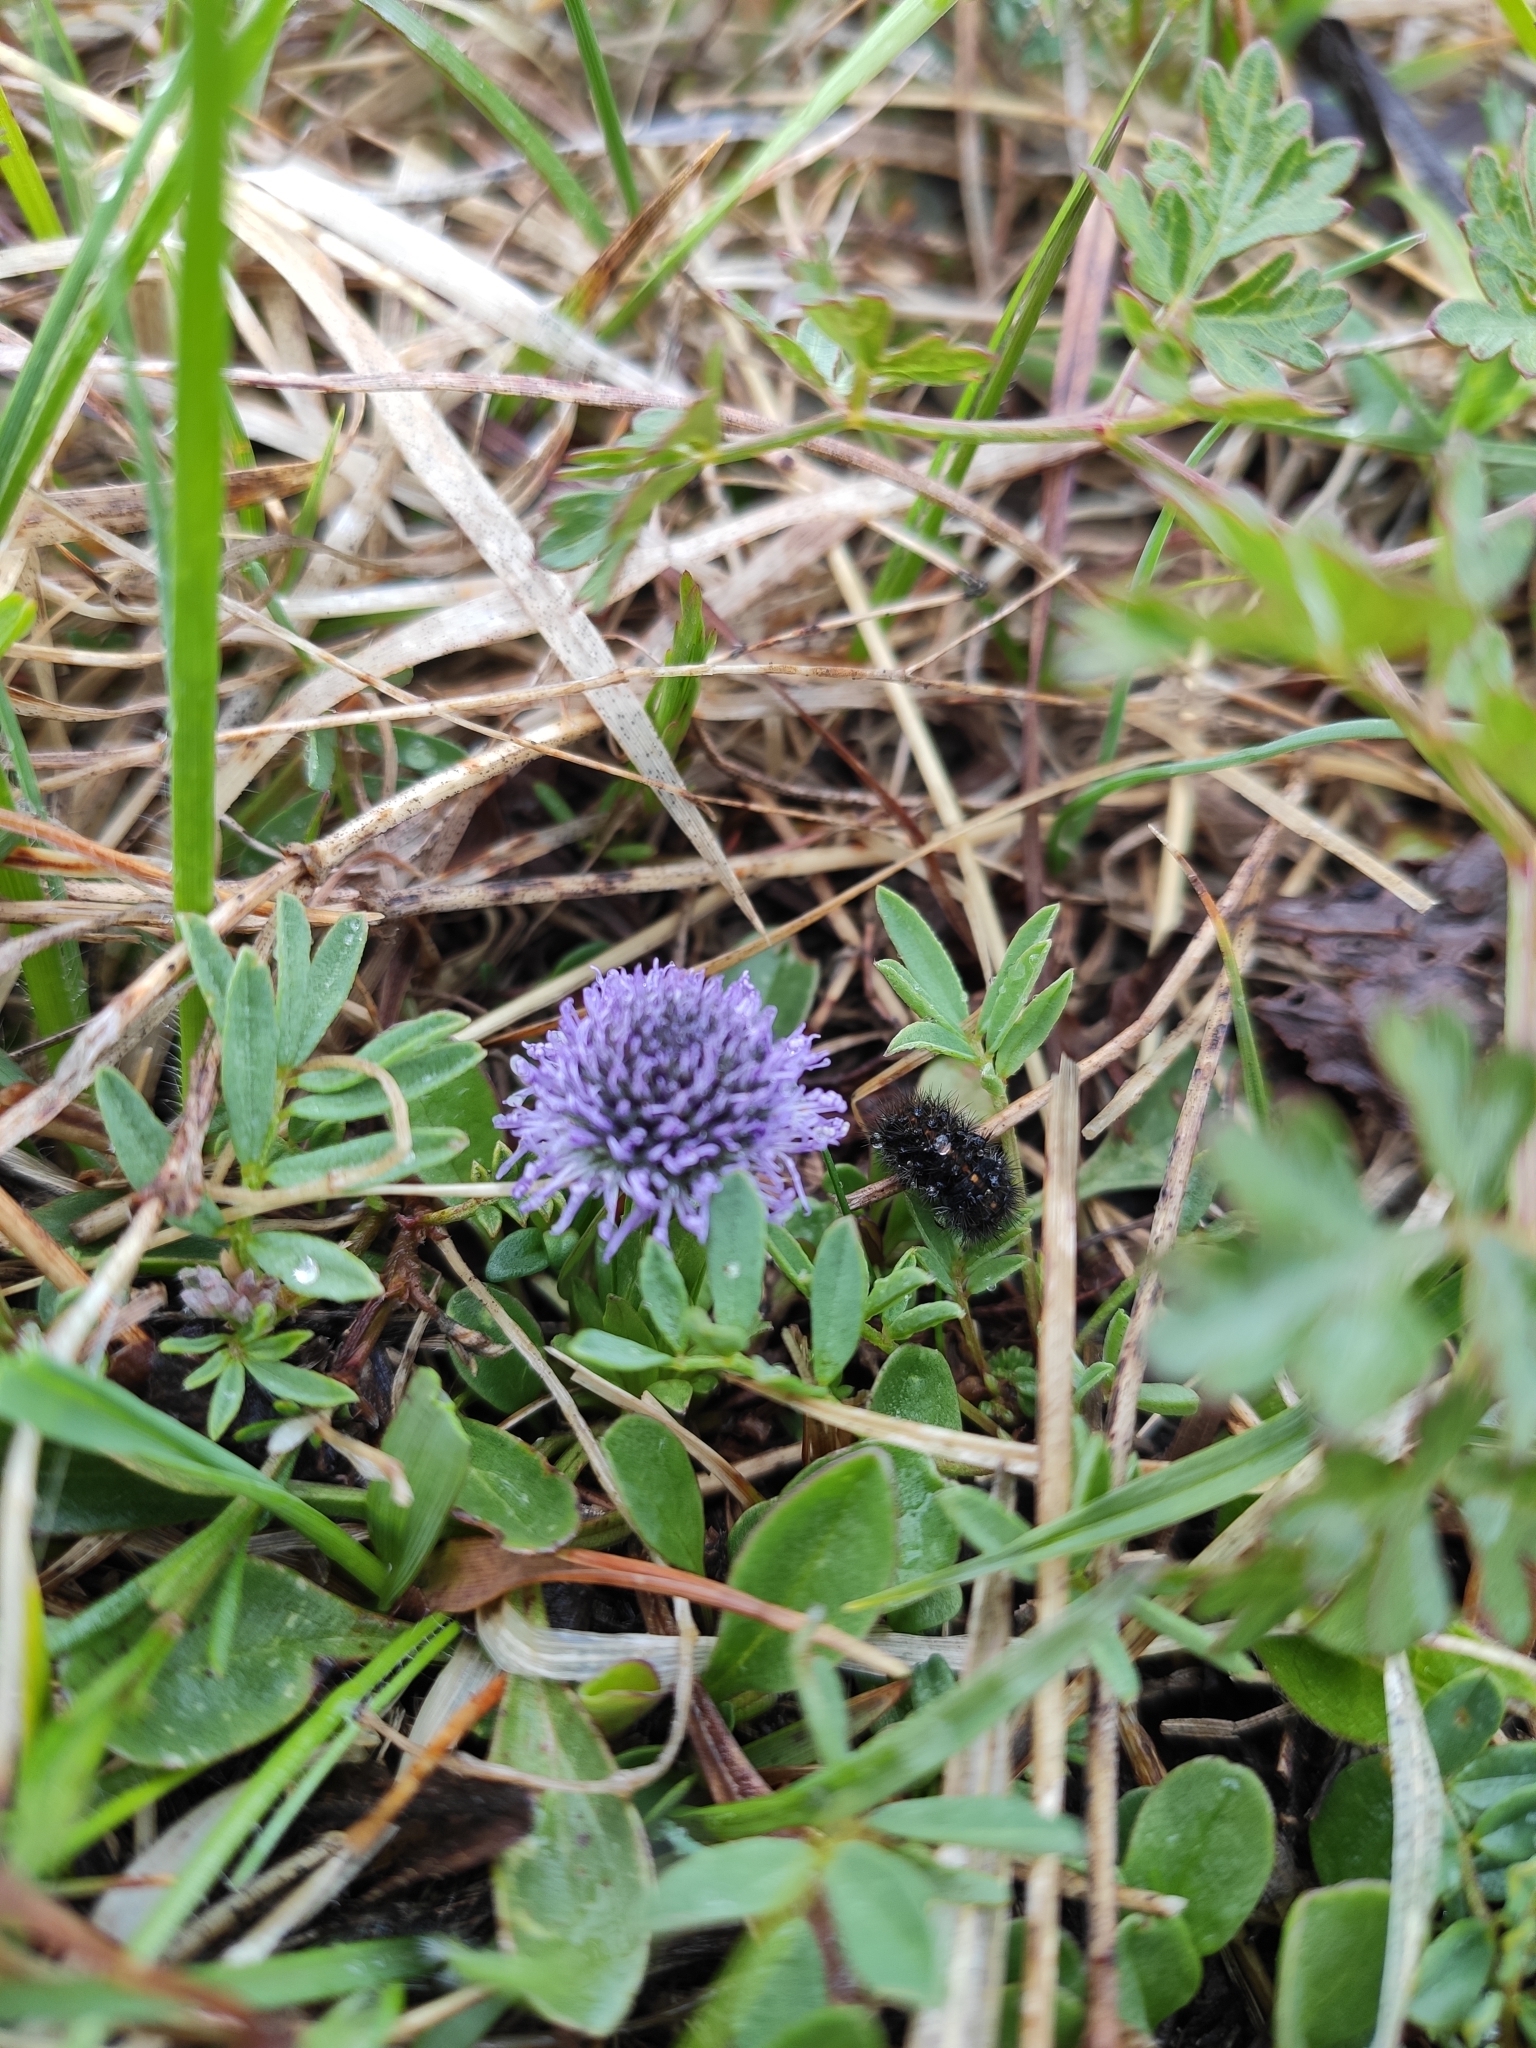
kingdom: Plantae
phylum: Tracheophyta
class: Magnoliopsida
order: Lamiales
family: Plantaginaceae
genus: Globularia
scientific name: Globularia bisnagarica
